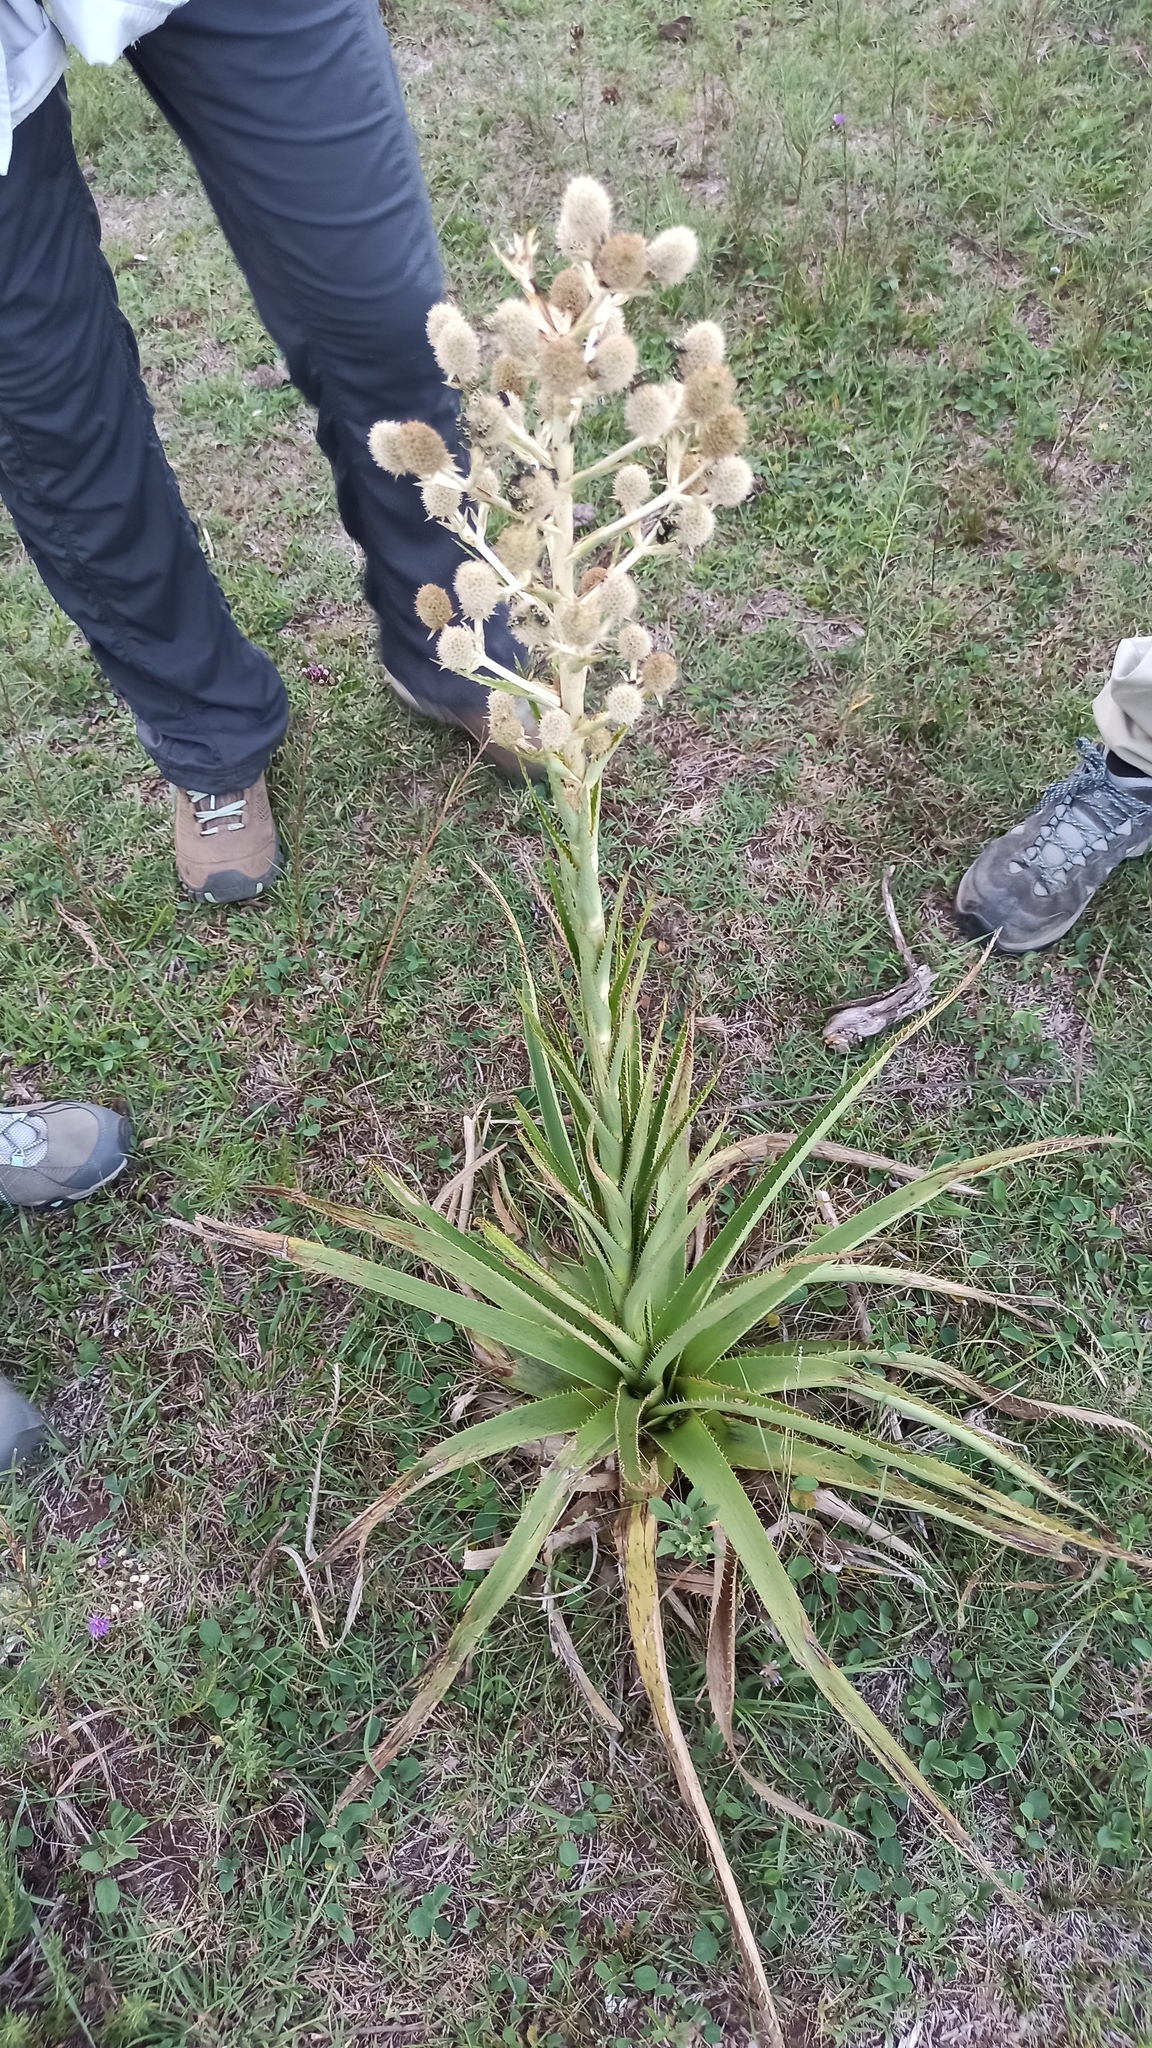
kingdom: Plantae
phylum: Tracheophyta
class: Magnoliopsida
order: Apiales
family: Apiaceae
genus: Eryngium
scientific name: Eryngium eburneum
